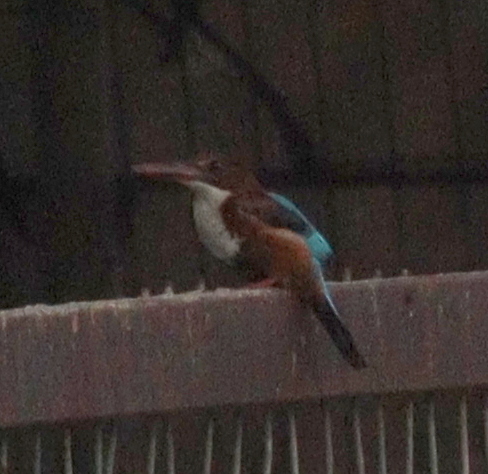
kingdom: Animalia
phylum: Chordata
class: Aves
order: Coraciiformes
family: Alcedinidae
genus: Halcyon
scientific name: Halcyon smyrnensis
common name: White-throated kingfisher
